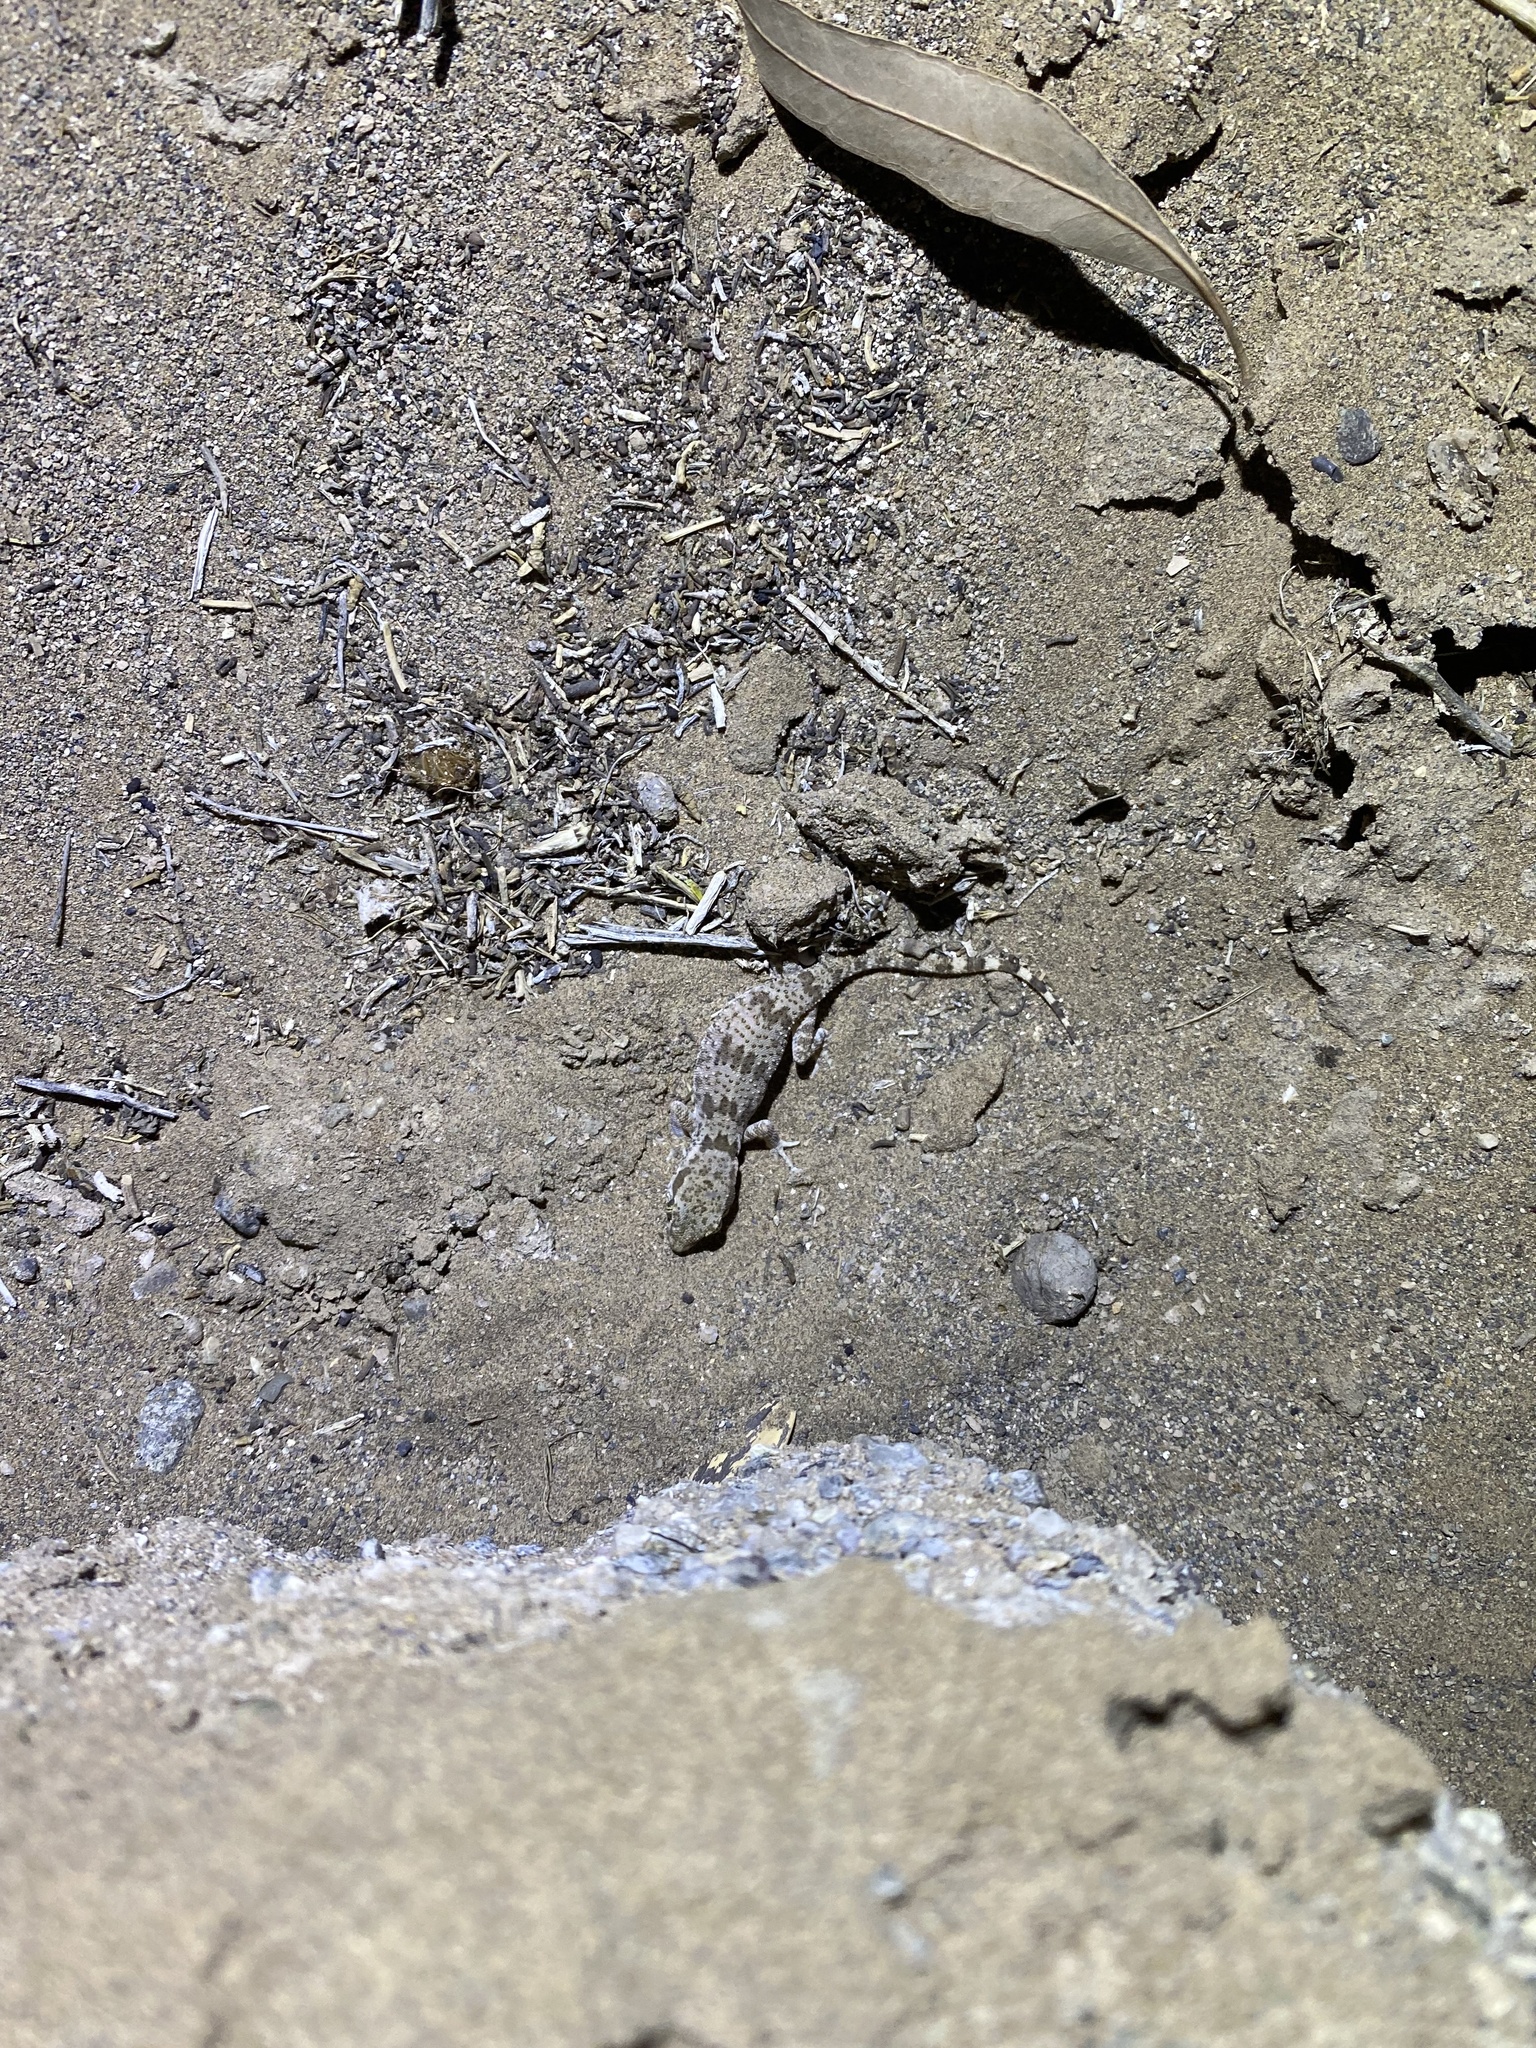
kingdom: Animalia
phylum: Chordata
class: Squamata
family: Gekkonidae
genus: Bunopus
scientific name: Bunopus crassicauda
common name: Thick-tailed tuberculated gecko
